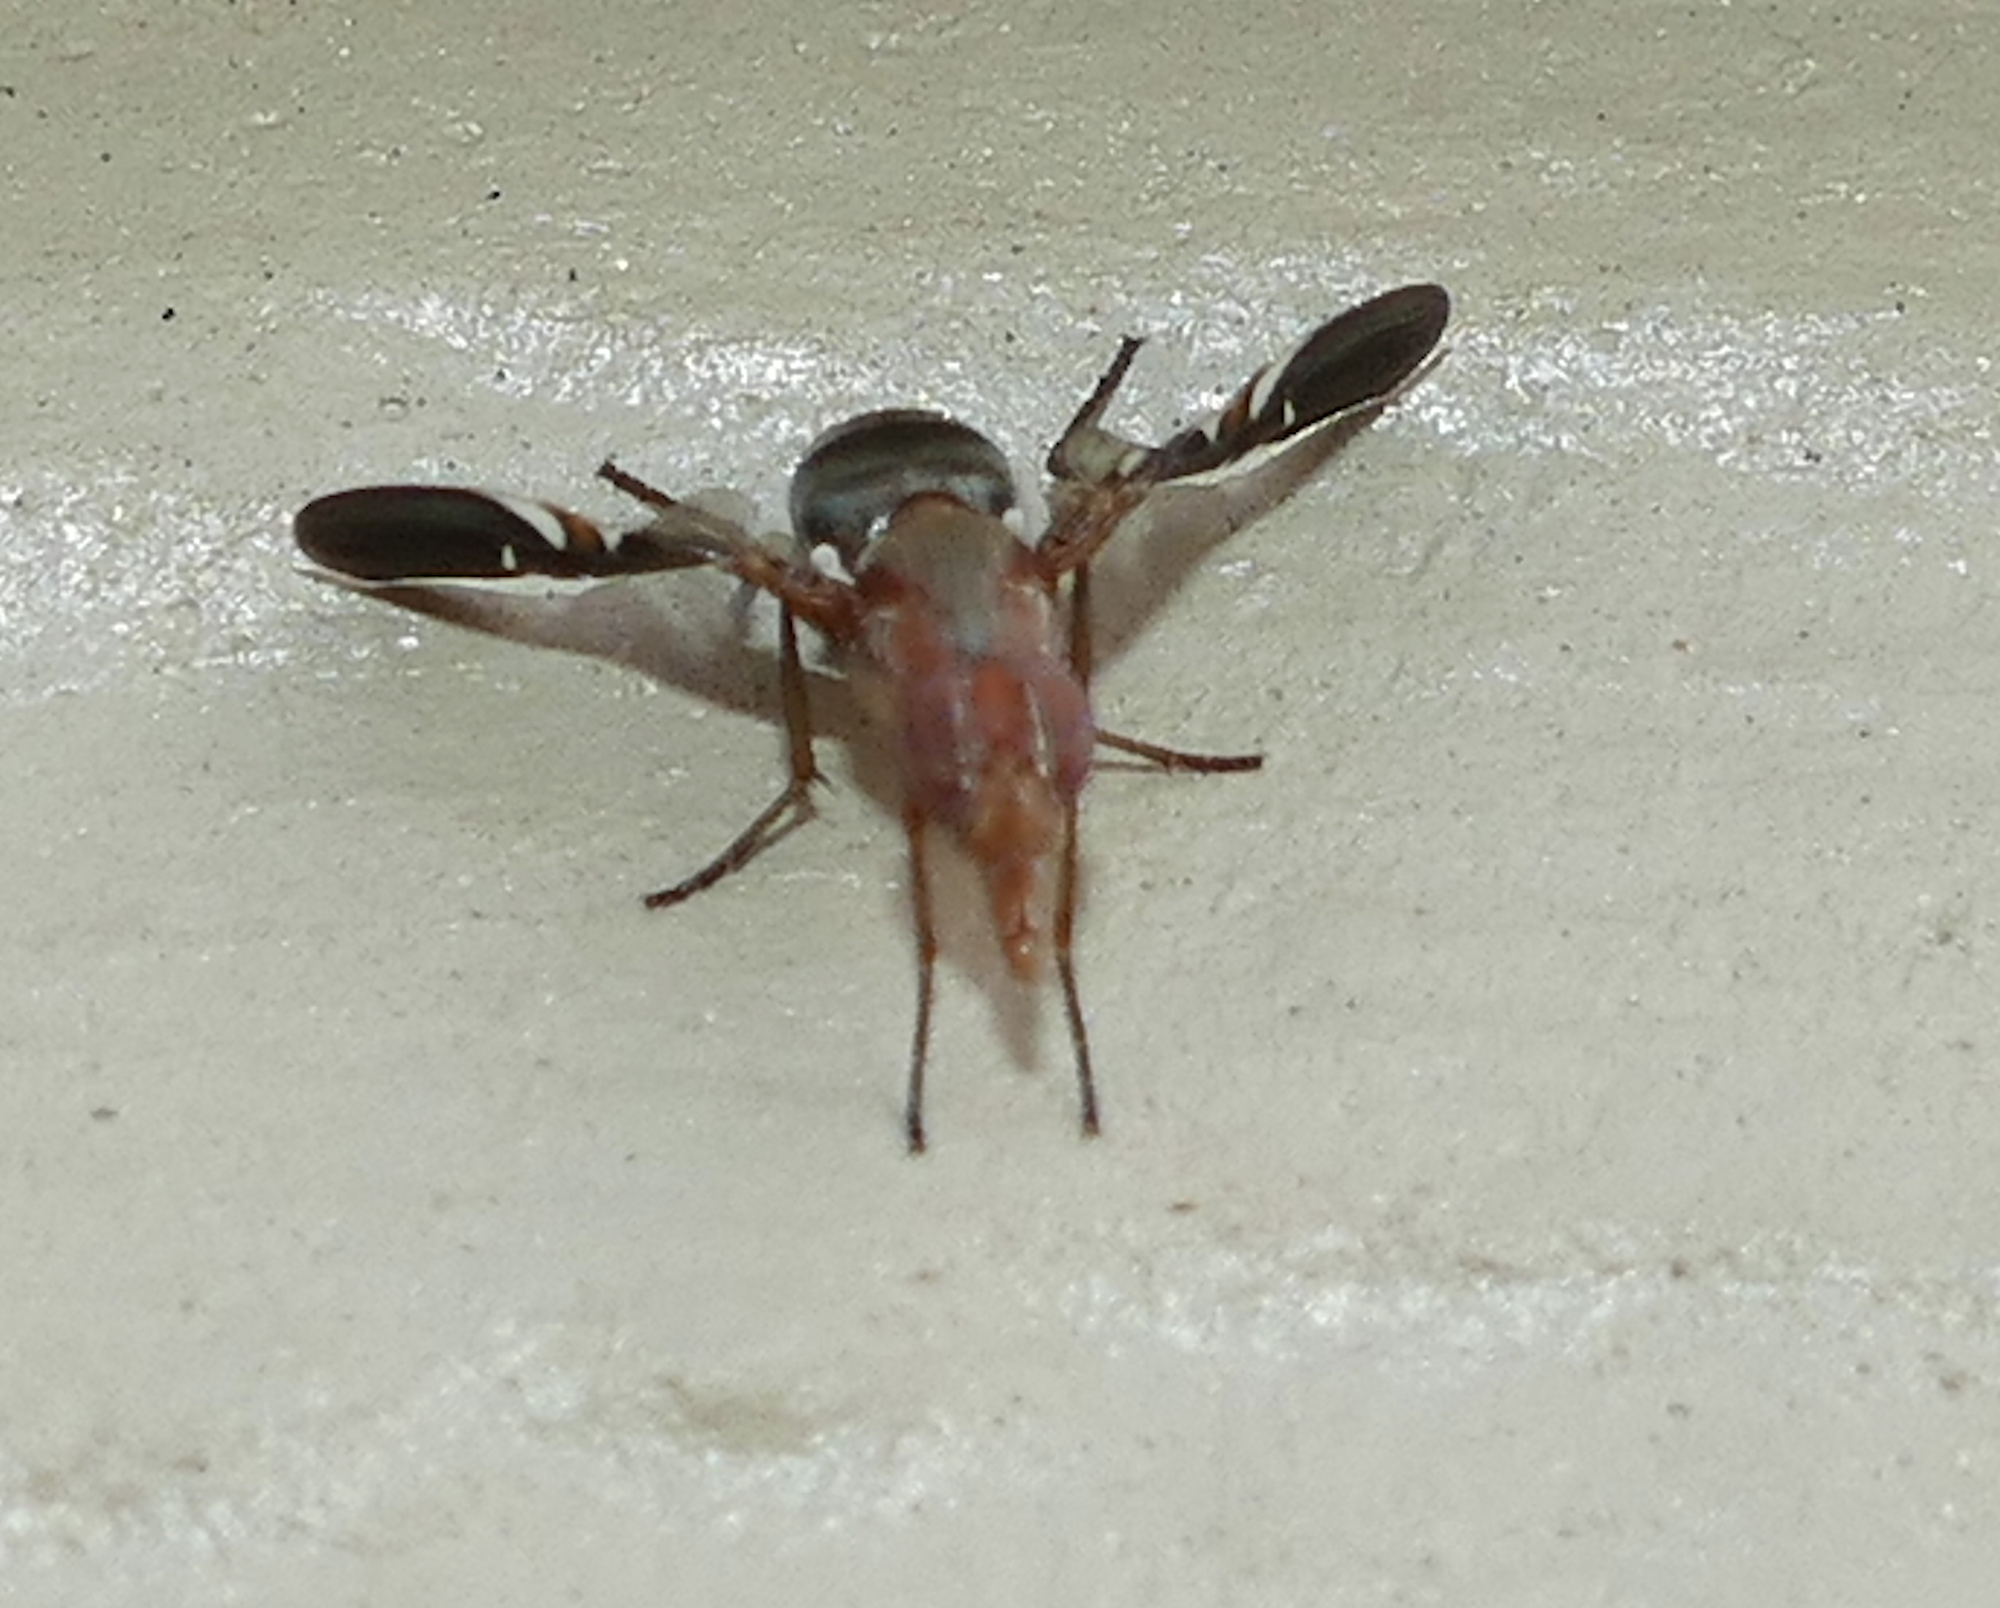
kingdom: Animalia
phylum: Arthropoda
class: Insecta
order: Diptera
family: Ulidiidae
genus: Delphinia
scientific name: Delphinia picta
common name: Common picture-winged fly
